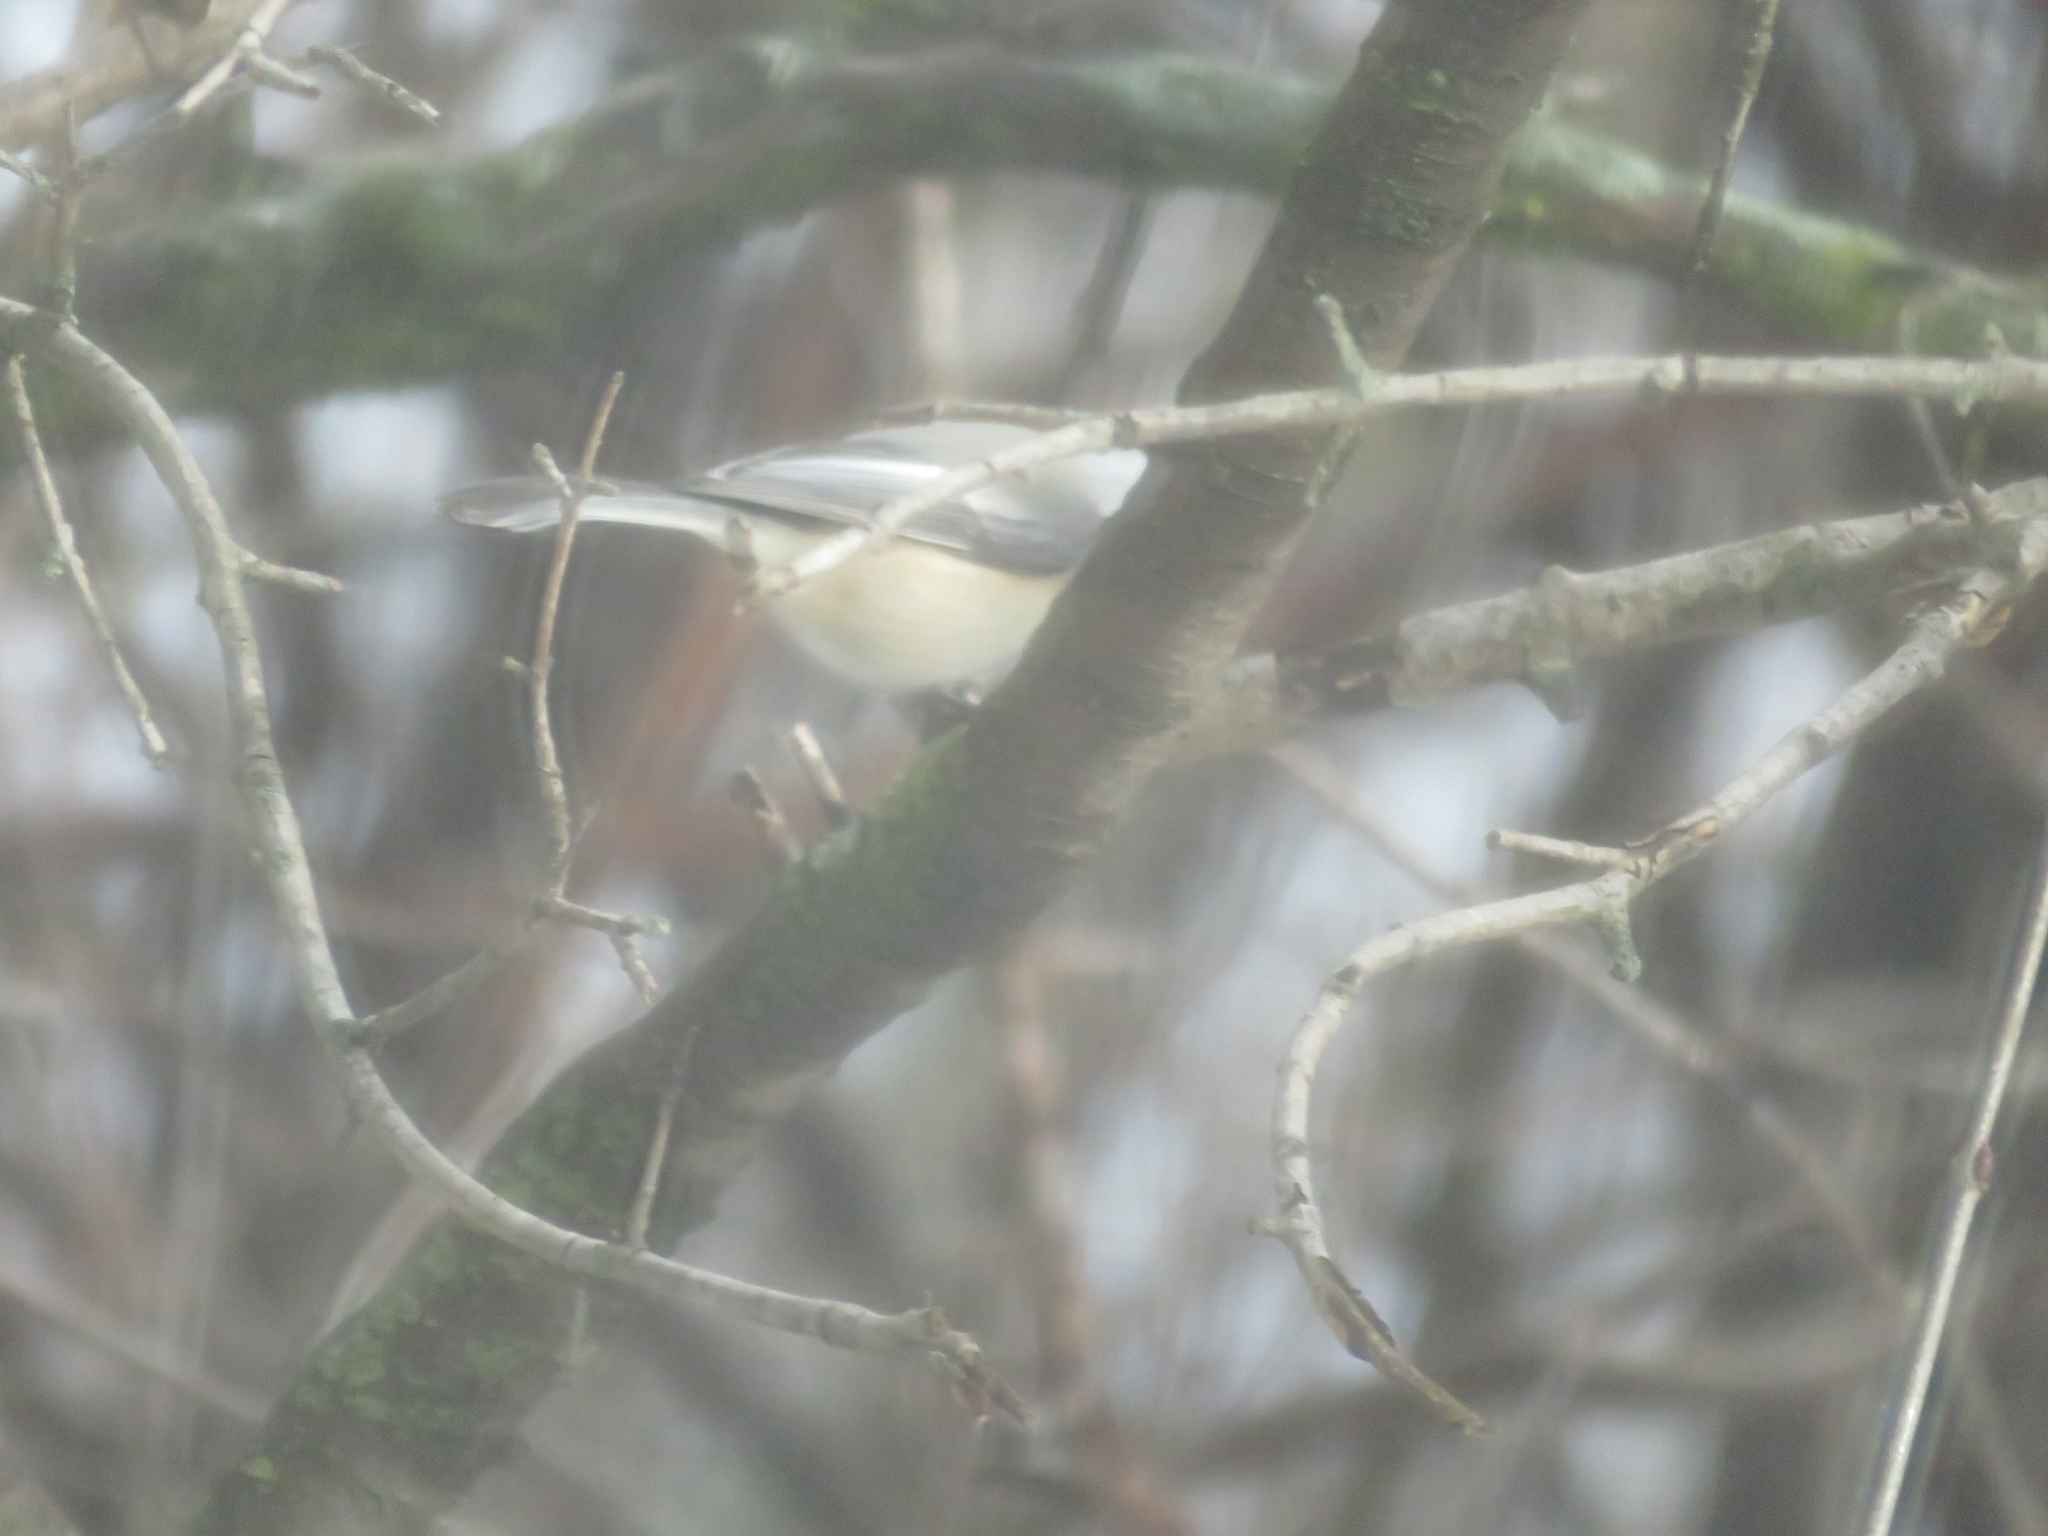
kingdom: Animalia
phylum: Chordata
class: Aves
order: Passeriformes
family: Paridae
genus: Poecile
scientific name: Poecile atricapillus
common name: Black-capped chickadee
